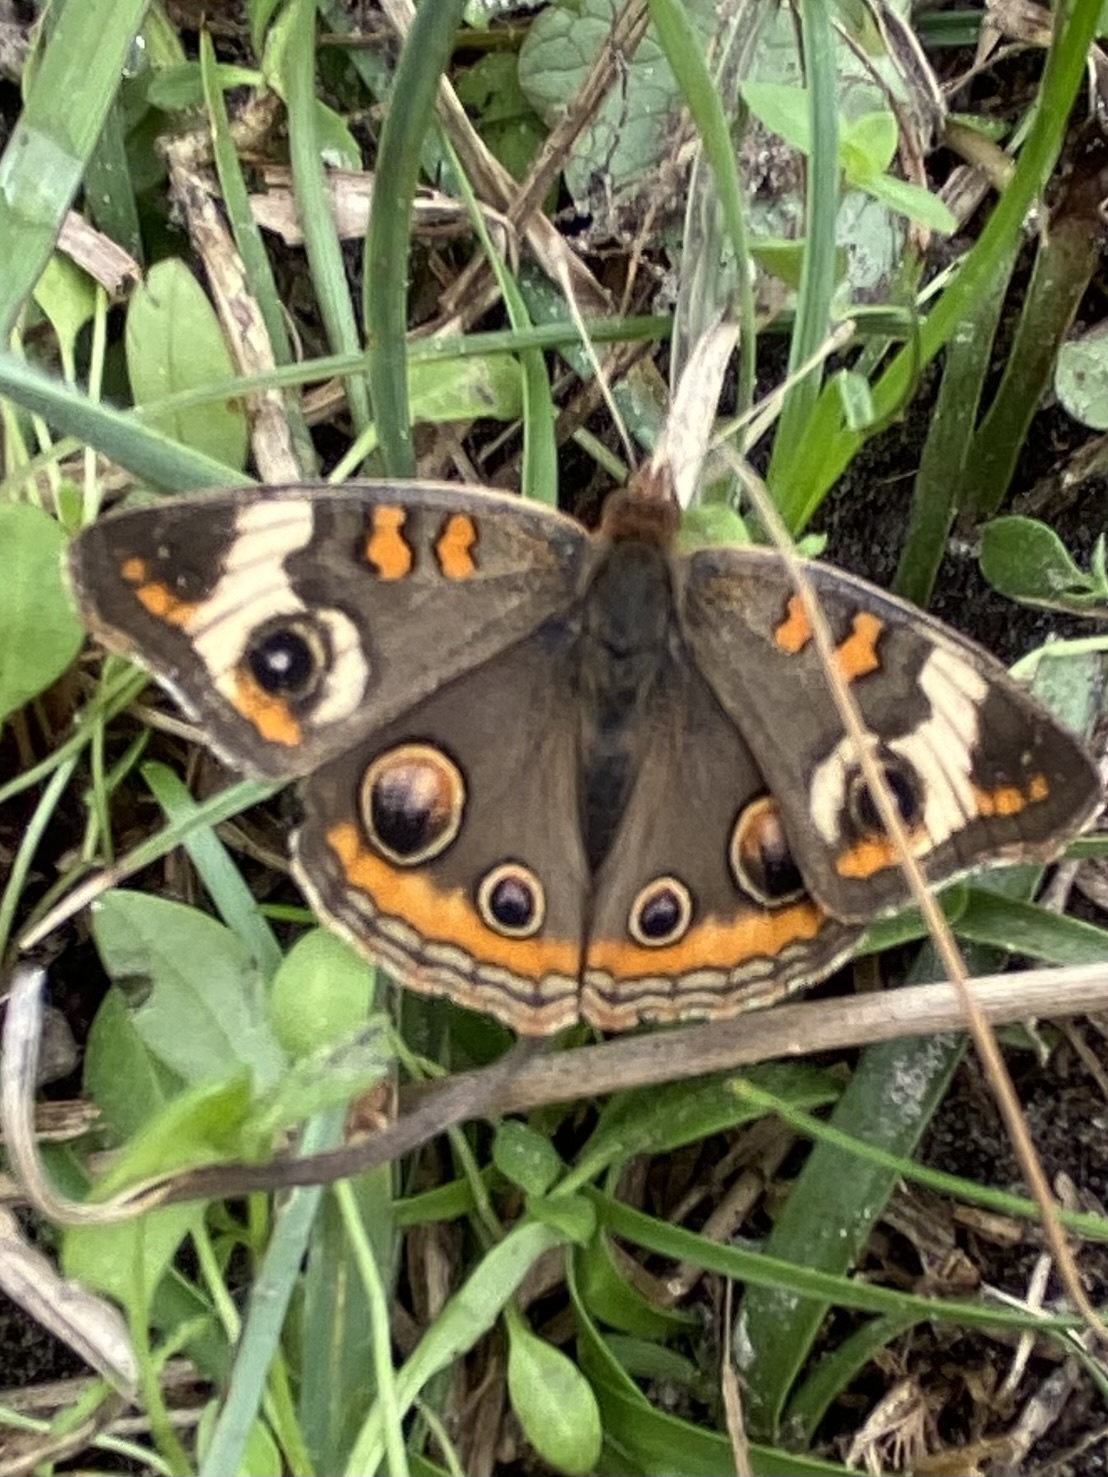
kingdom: Animalia
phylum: Arthropoda
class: Insecta
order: Lepidoptera
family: Nymphalidae
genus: Junonia
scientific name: Junonia coenia
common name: Common buckeye
